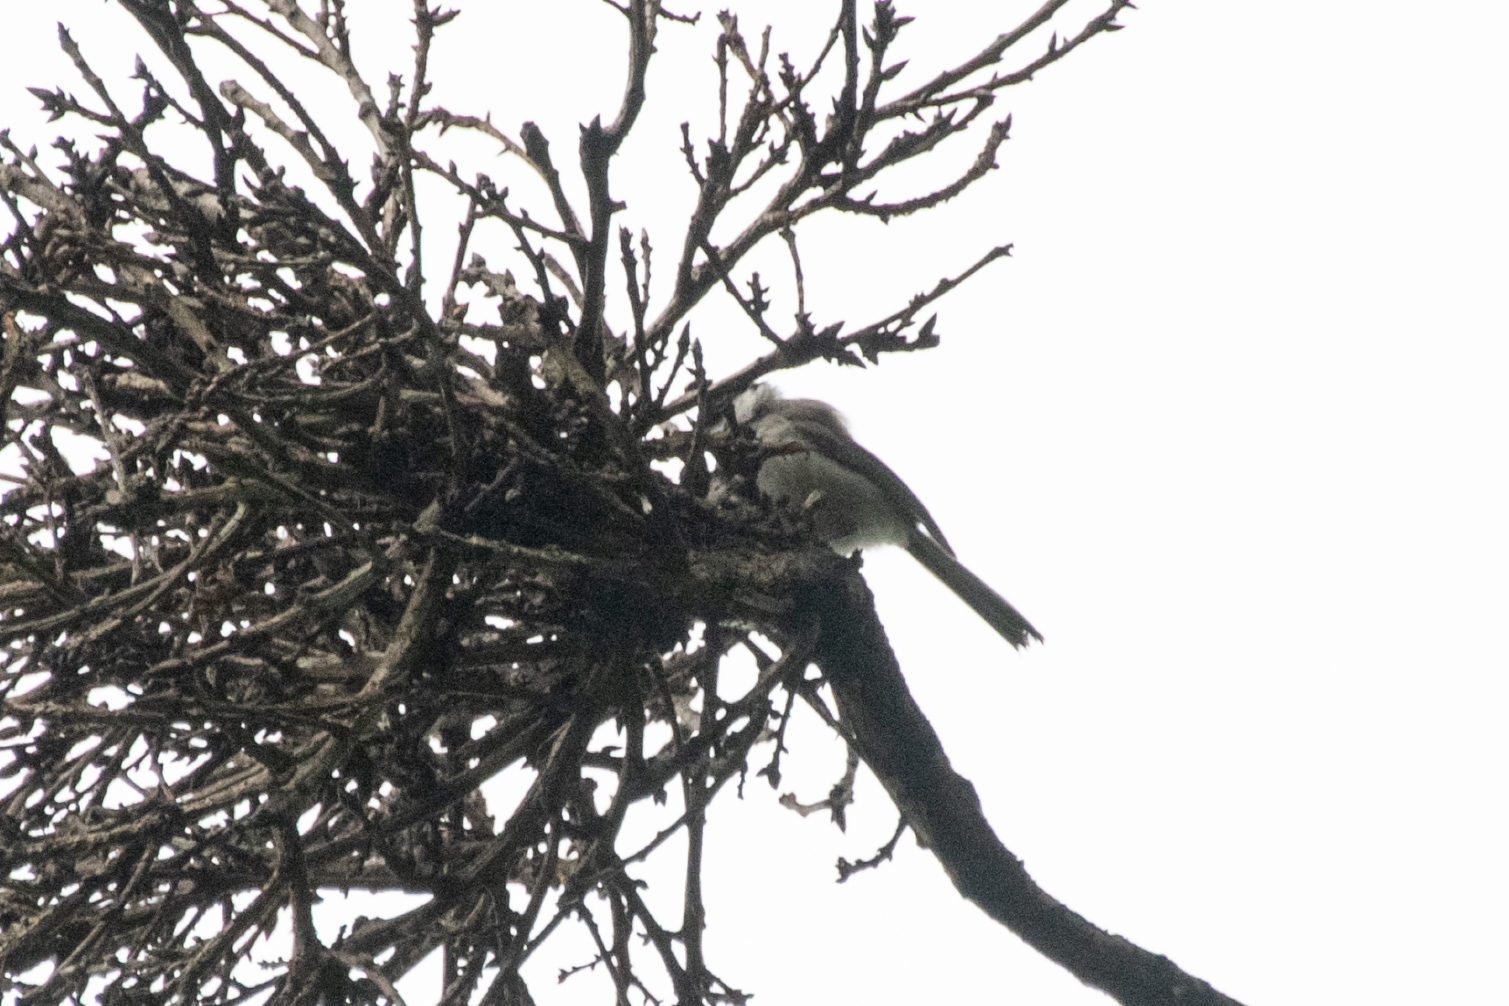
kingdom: Animalia
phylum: Chordata
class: Aves
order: Passeriformes
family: Paridae
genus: Poecile
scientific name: Poecile palustris
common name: Marsh tit
